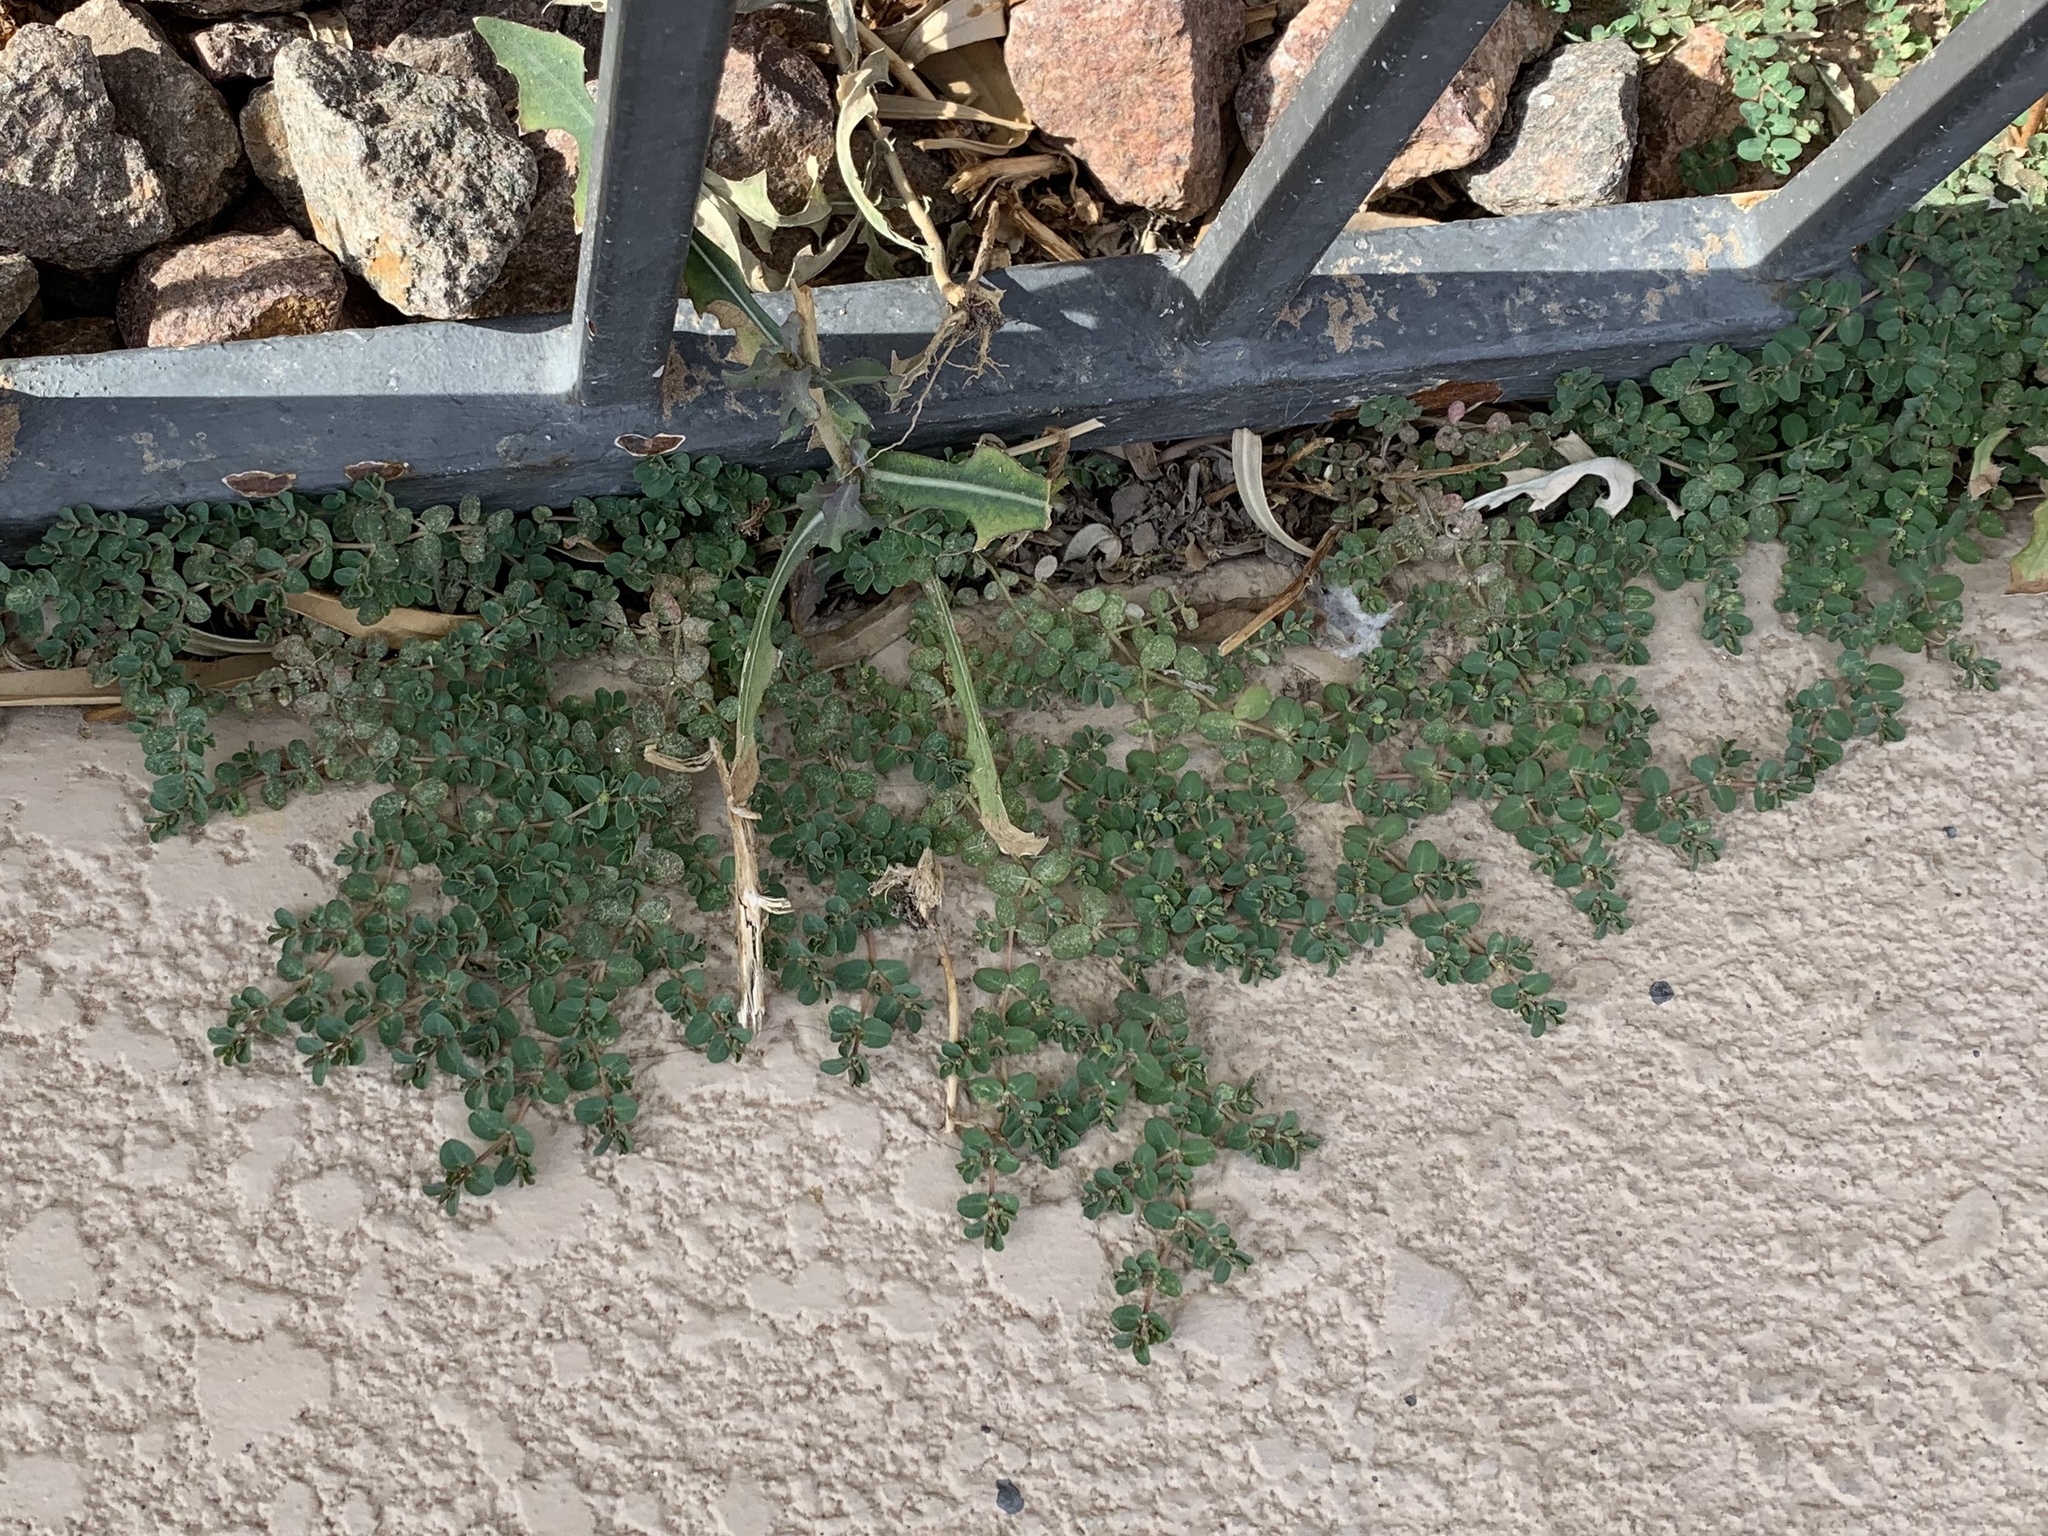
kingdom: Plantae
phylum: Tracheophyta
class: Magnoliopsida
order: Malpighiales
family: Euphorbiaceae
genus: Euphorbia
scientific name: Euphorbia serpens
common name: Matted sandmat
